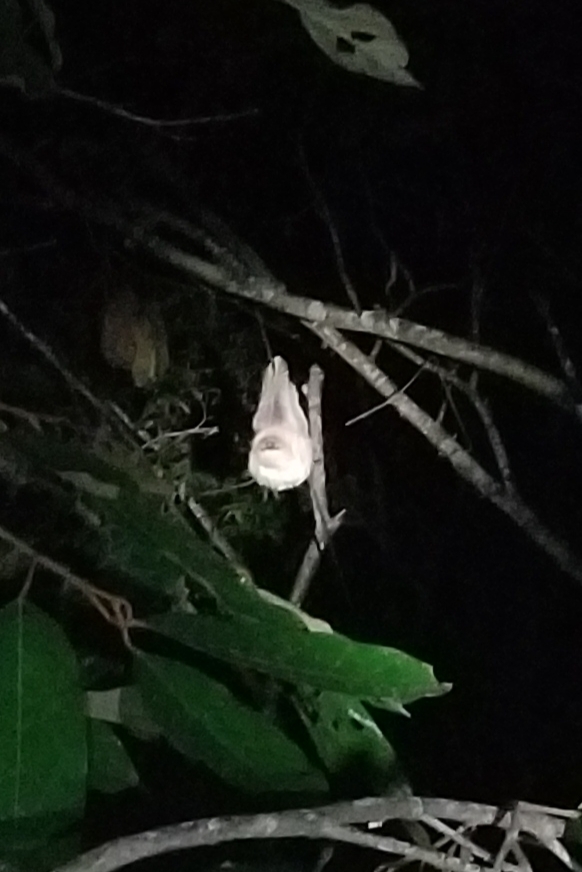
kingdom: Animalia
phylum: Chordata
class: Mammalia
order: Pilosa
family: Megalonychidae
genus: Choloepus
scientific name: Choloepus didactylus
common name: Southern two-toed sloth
